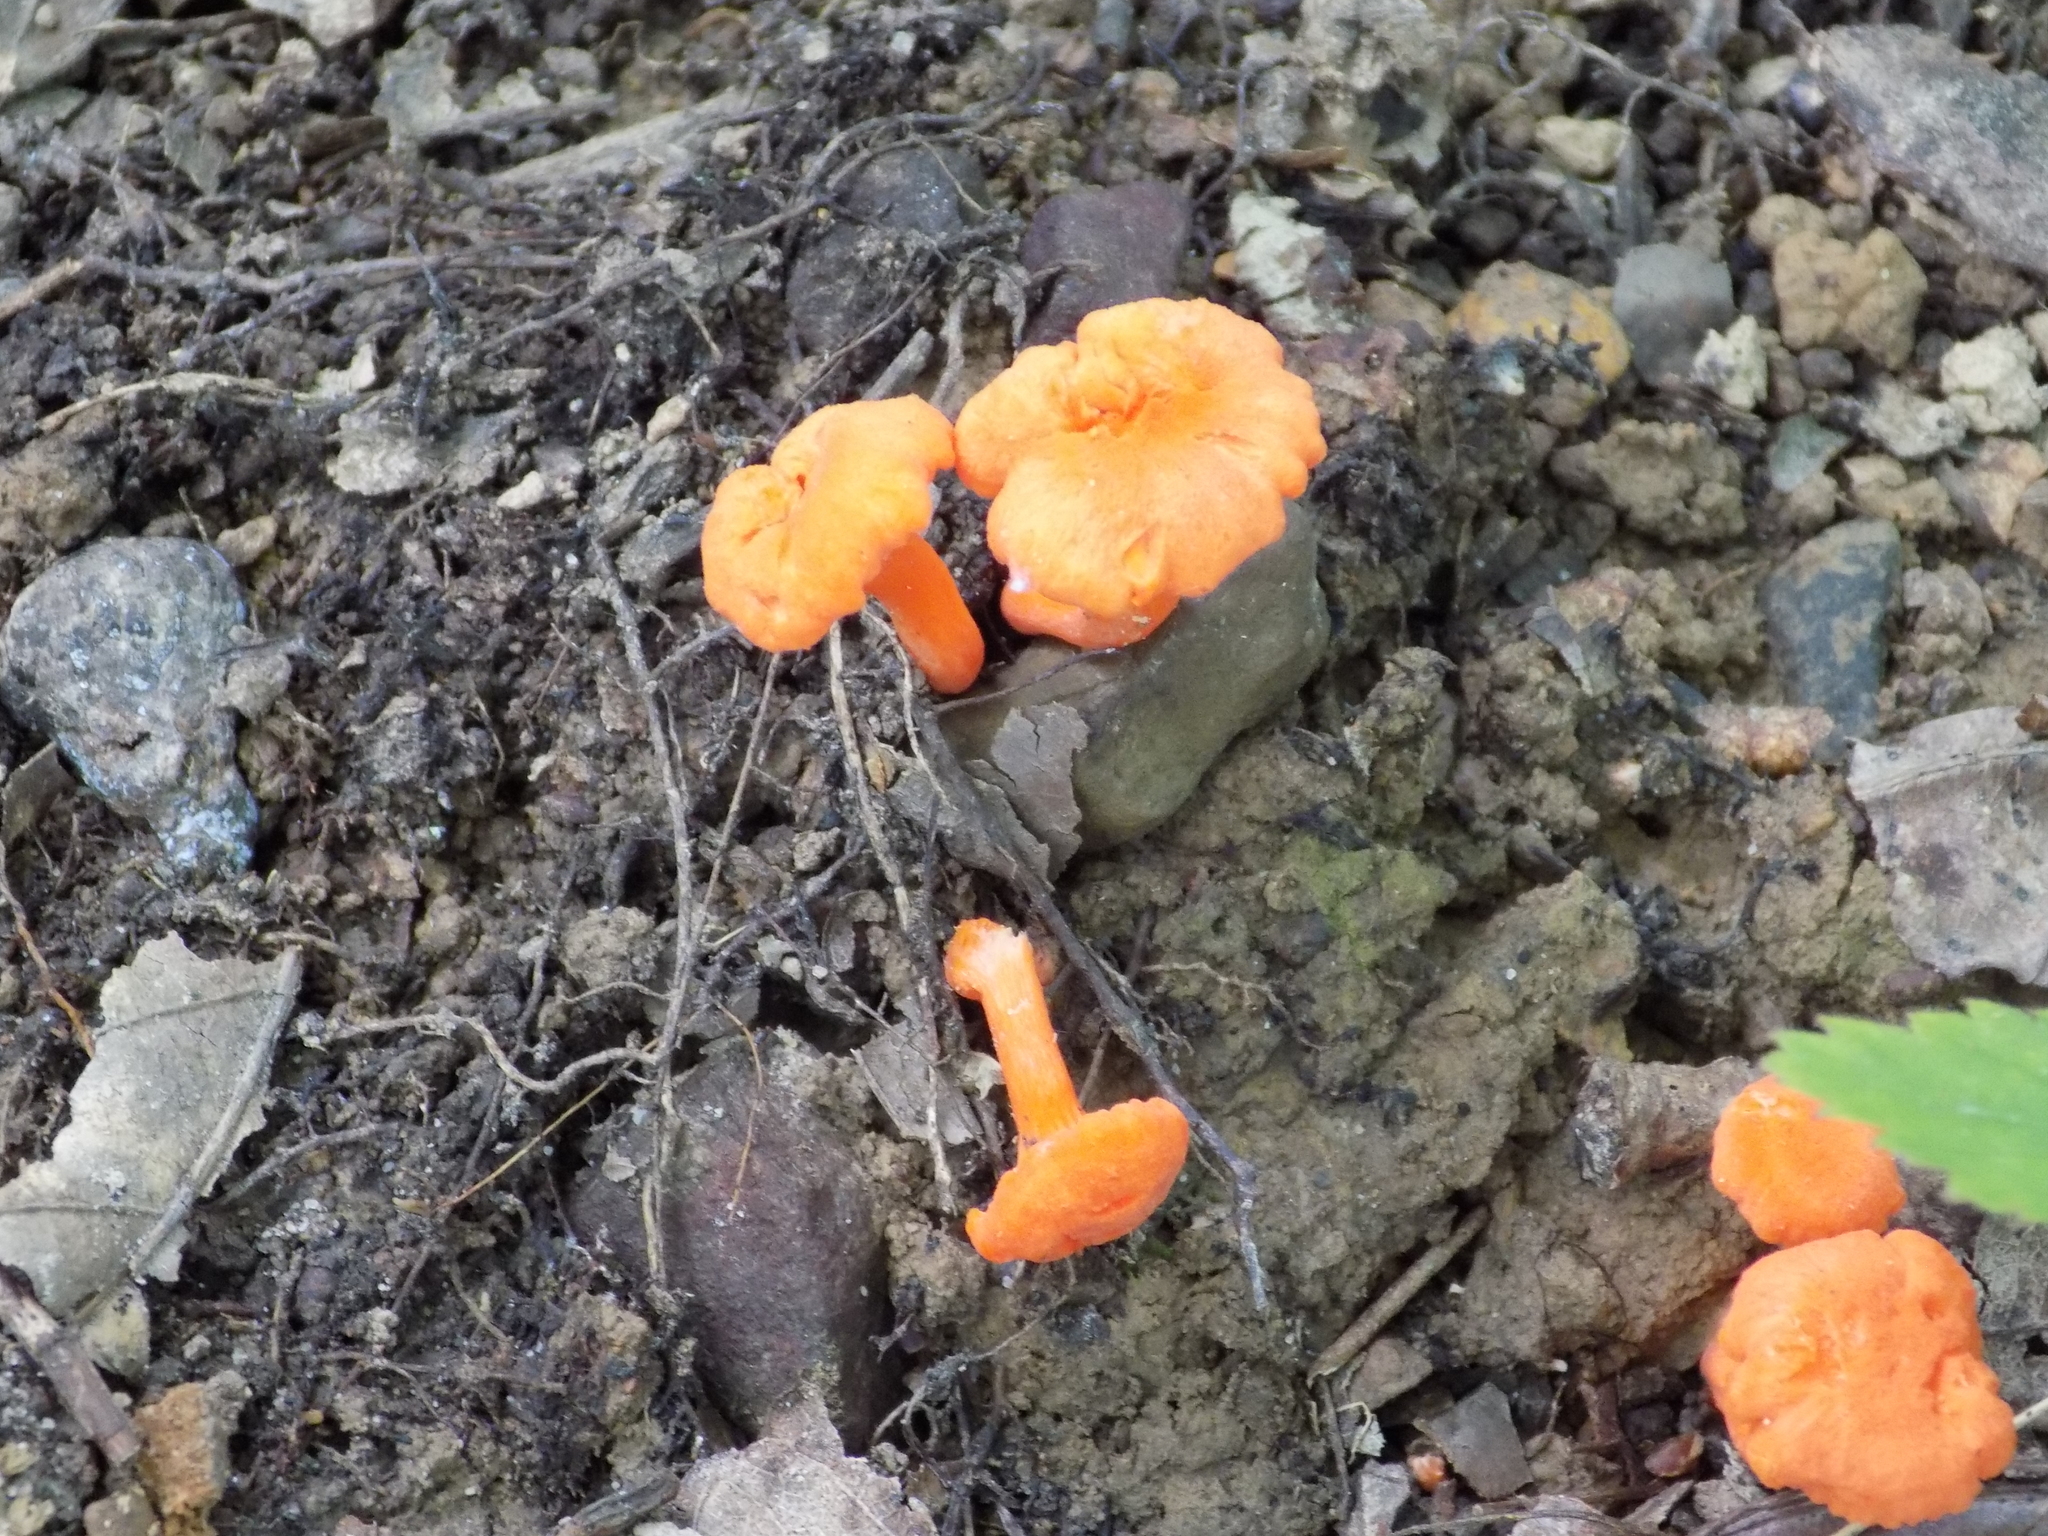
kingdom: Fungi
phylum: Basidiomycota
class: Agaricomycetes
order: Cantharellales
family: Hydnaceae
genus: Cantharellus
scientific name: Cantharellus cinnabarinus
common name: Cinnabar chanterelle
